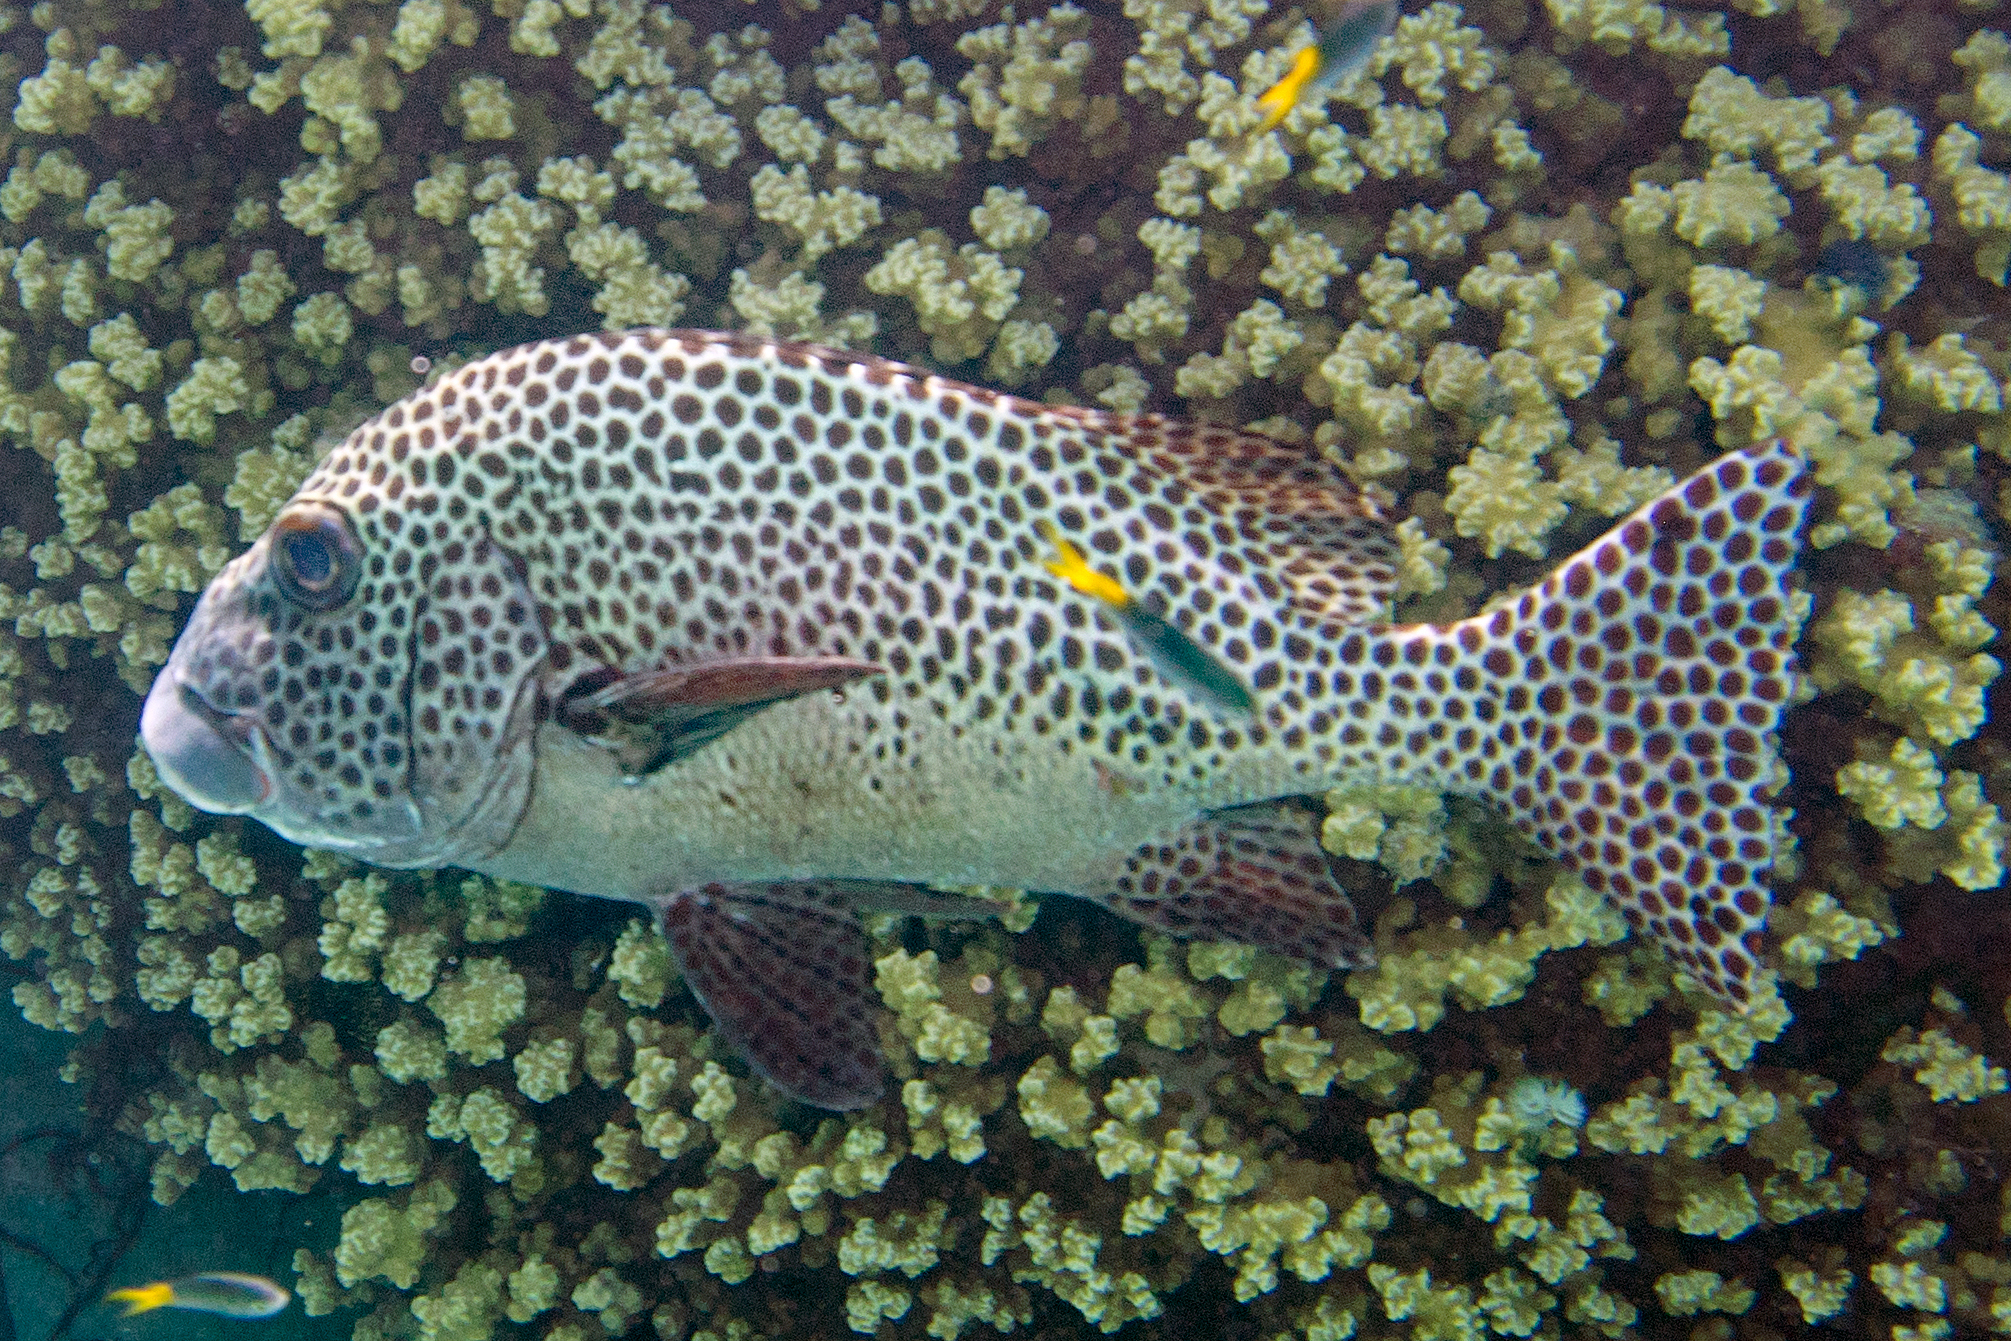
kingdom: Animalia
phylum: Chordata
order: Perciformes
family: Haemulidae
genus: Plectorhinchus
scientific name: Plectorhinchus chaetodonoides
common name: Harlequin sweetlips
